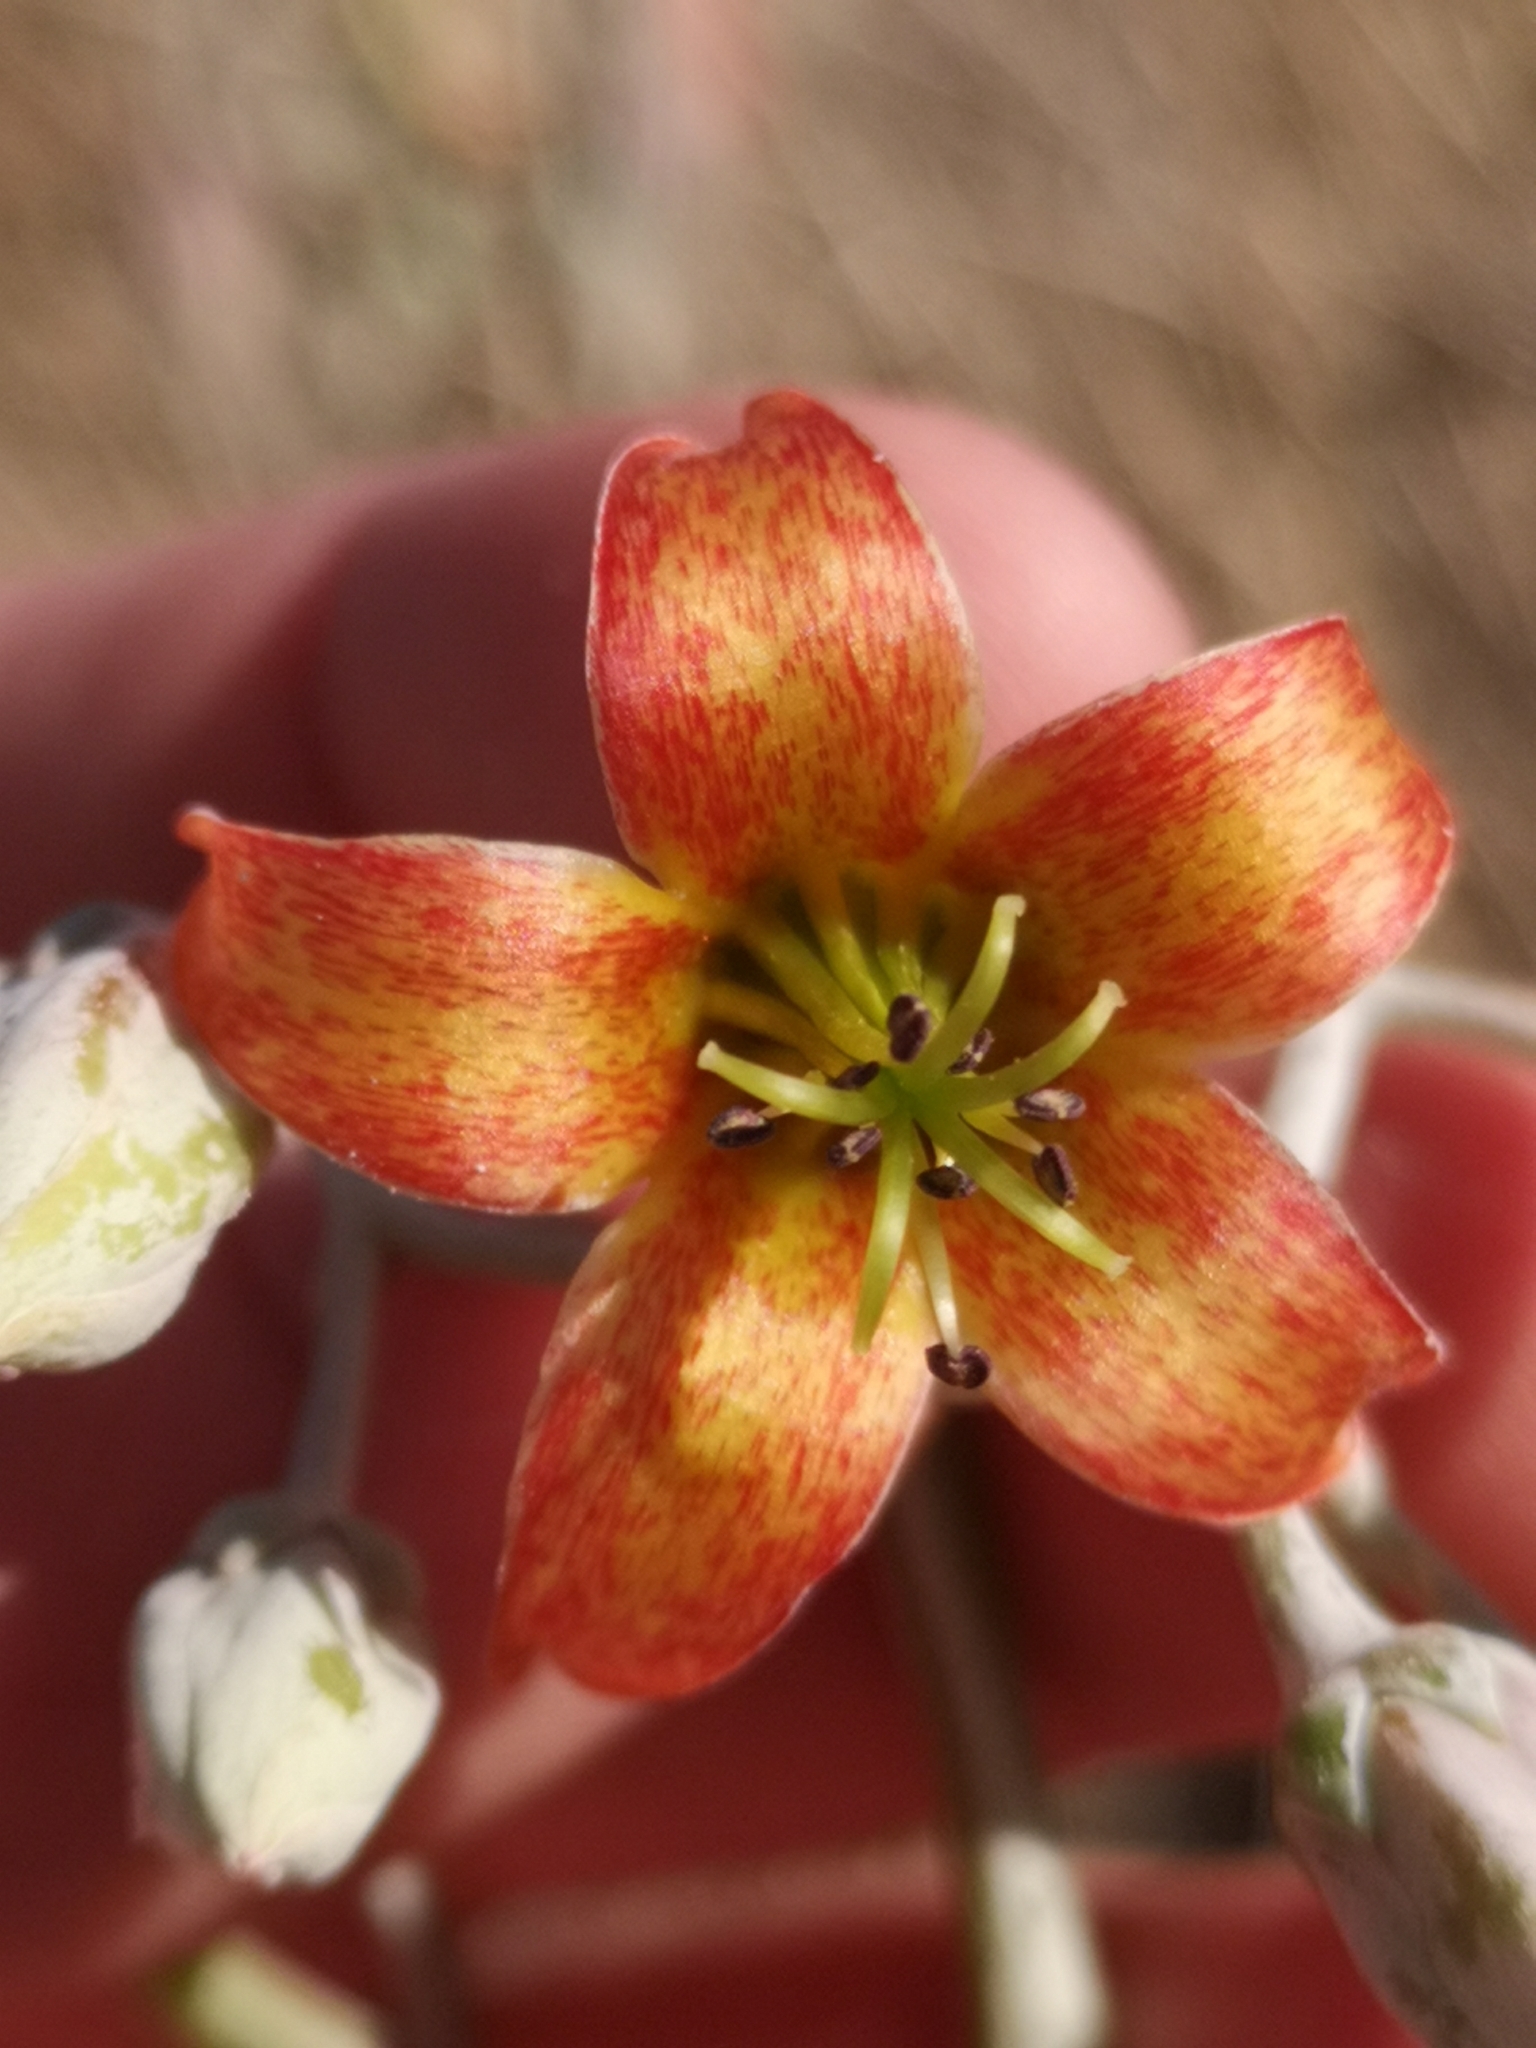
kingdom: Plantae
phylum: Tracheophyta
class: Magnoliopsida
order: Saxifragales
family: Crassulaceae
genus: Cotyledon
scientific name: Cotyledon orbiculata
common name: Pig's ear
